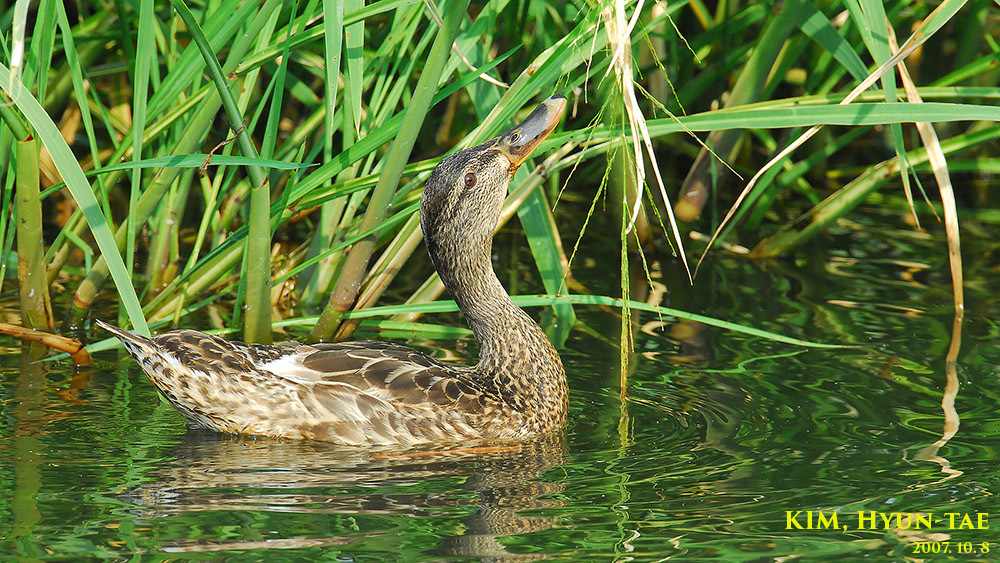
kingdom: Animalia
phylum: Chordata
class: Aves
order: Anseriformes
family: Anatidae
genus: Anas
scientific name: Anas platyrhynchos
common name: Mallard
